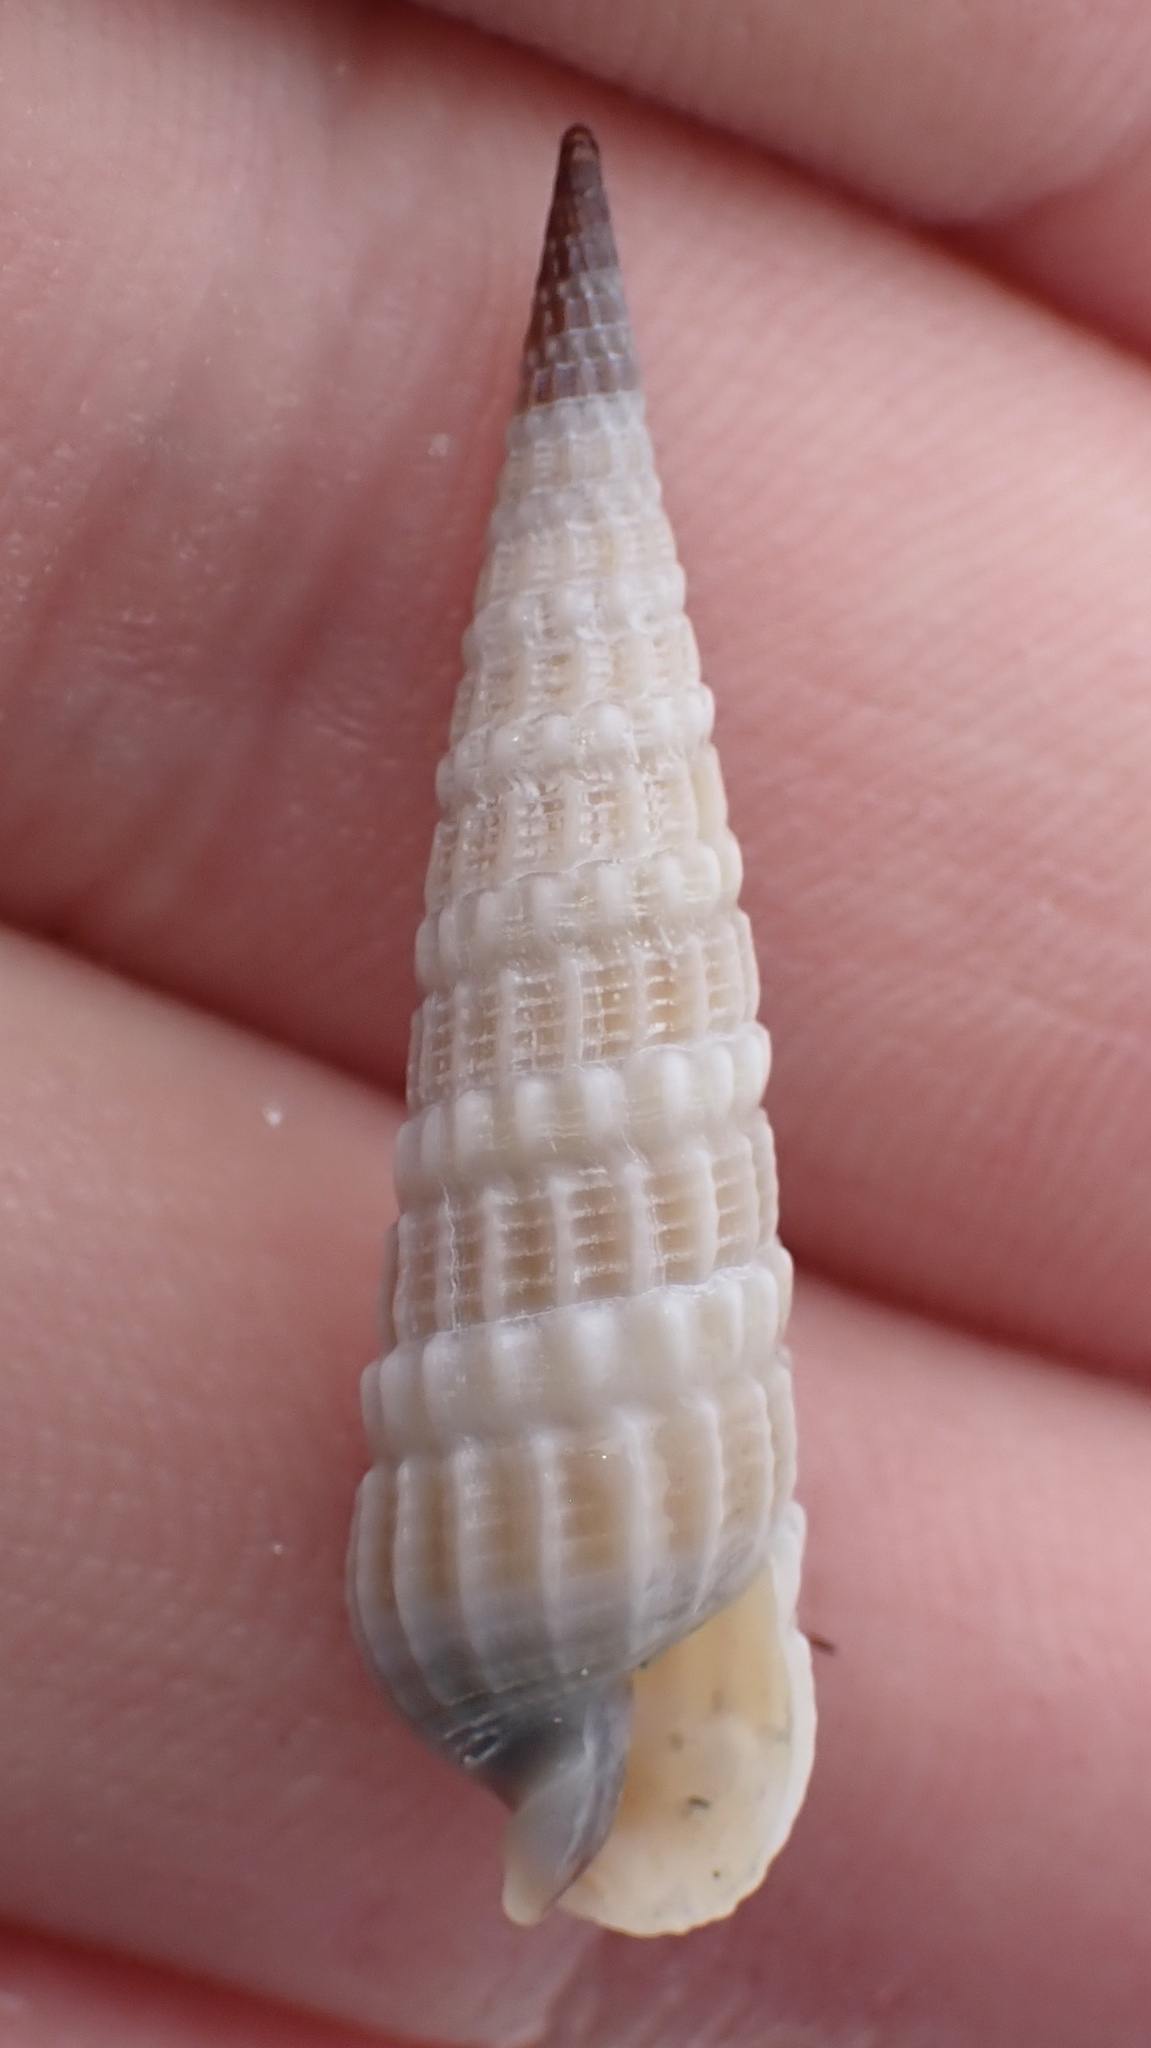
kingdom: Animalia
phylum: Mollusca
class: Gastropoda
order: Neogastropoda
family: Terebridae
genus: Neoterebra
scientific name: Neoterebra dislocata
